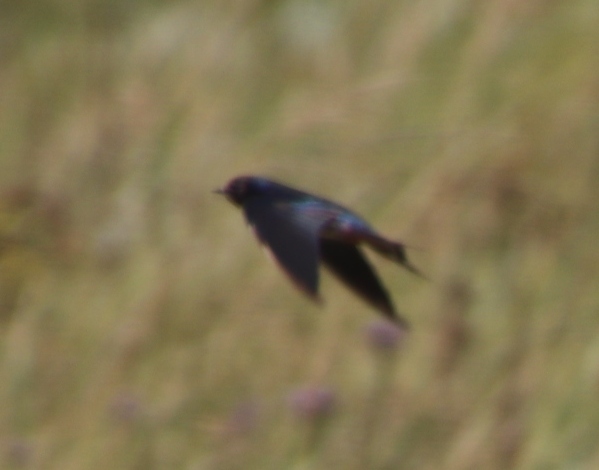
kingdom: Animalia
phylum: Chordata
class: Aves
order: Passeriformes
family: Hirundinidae
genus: Hirundo
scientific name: Hirundo rustica
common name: Barn swallow
